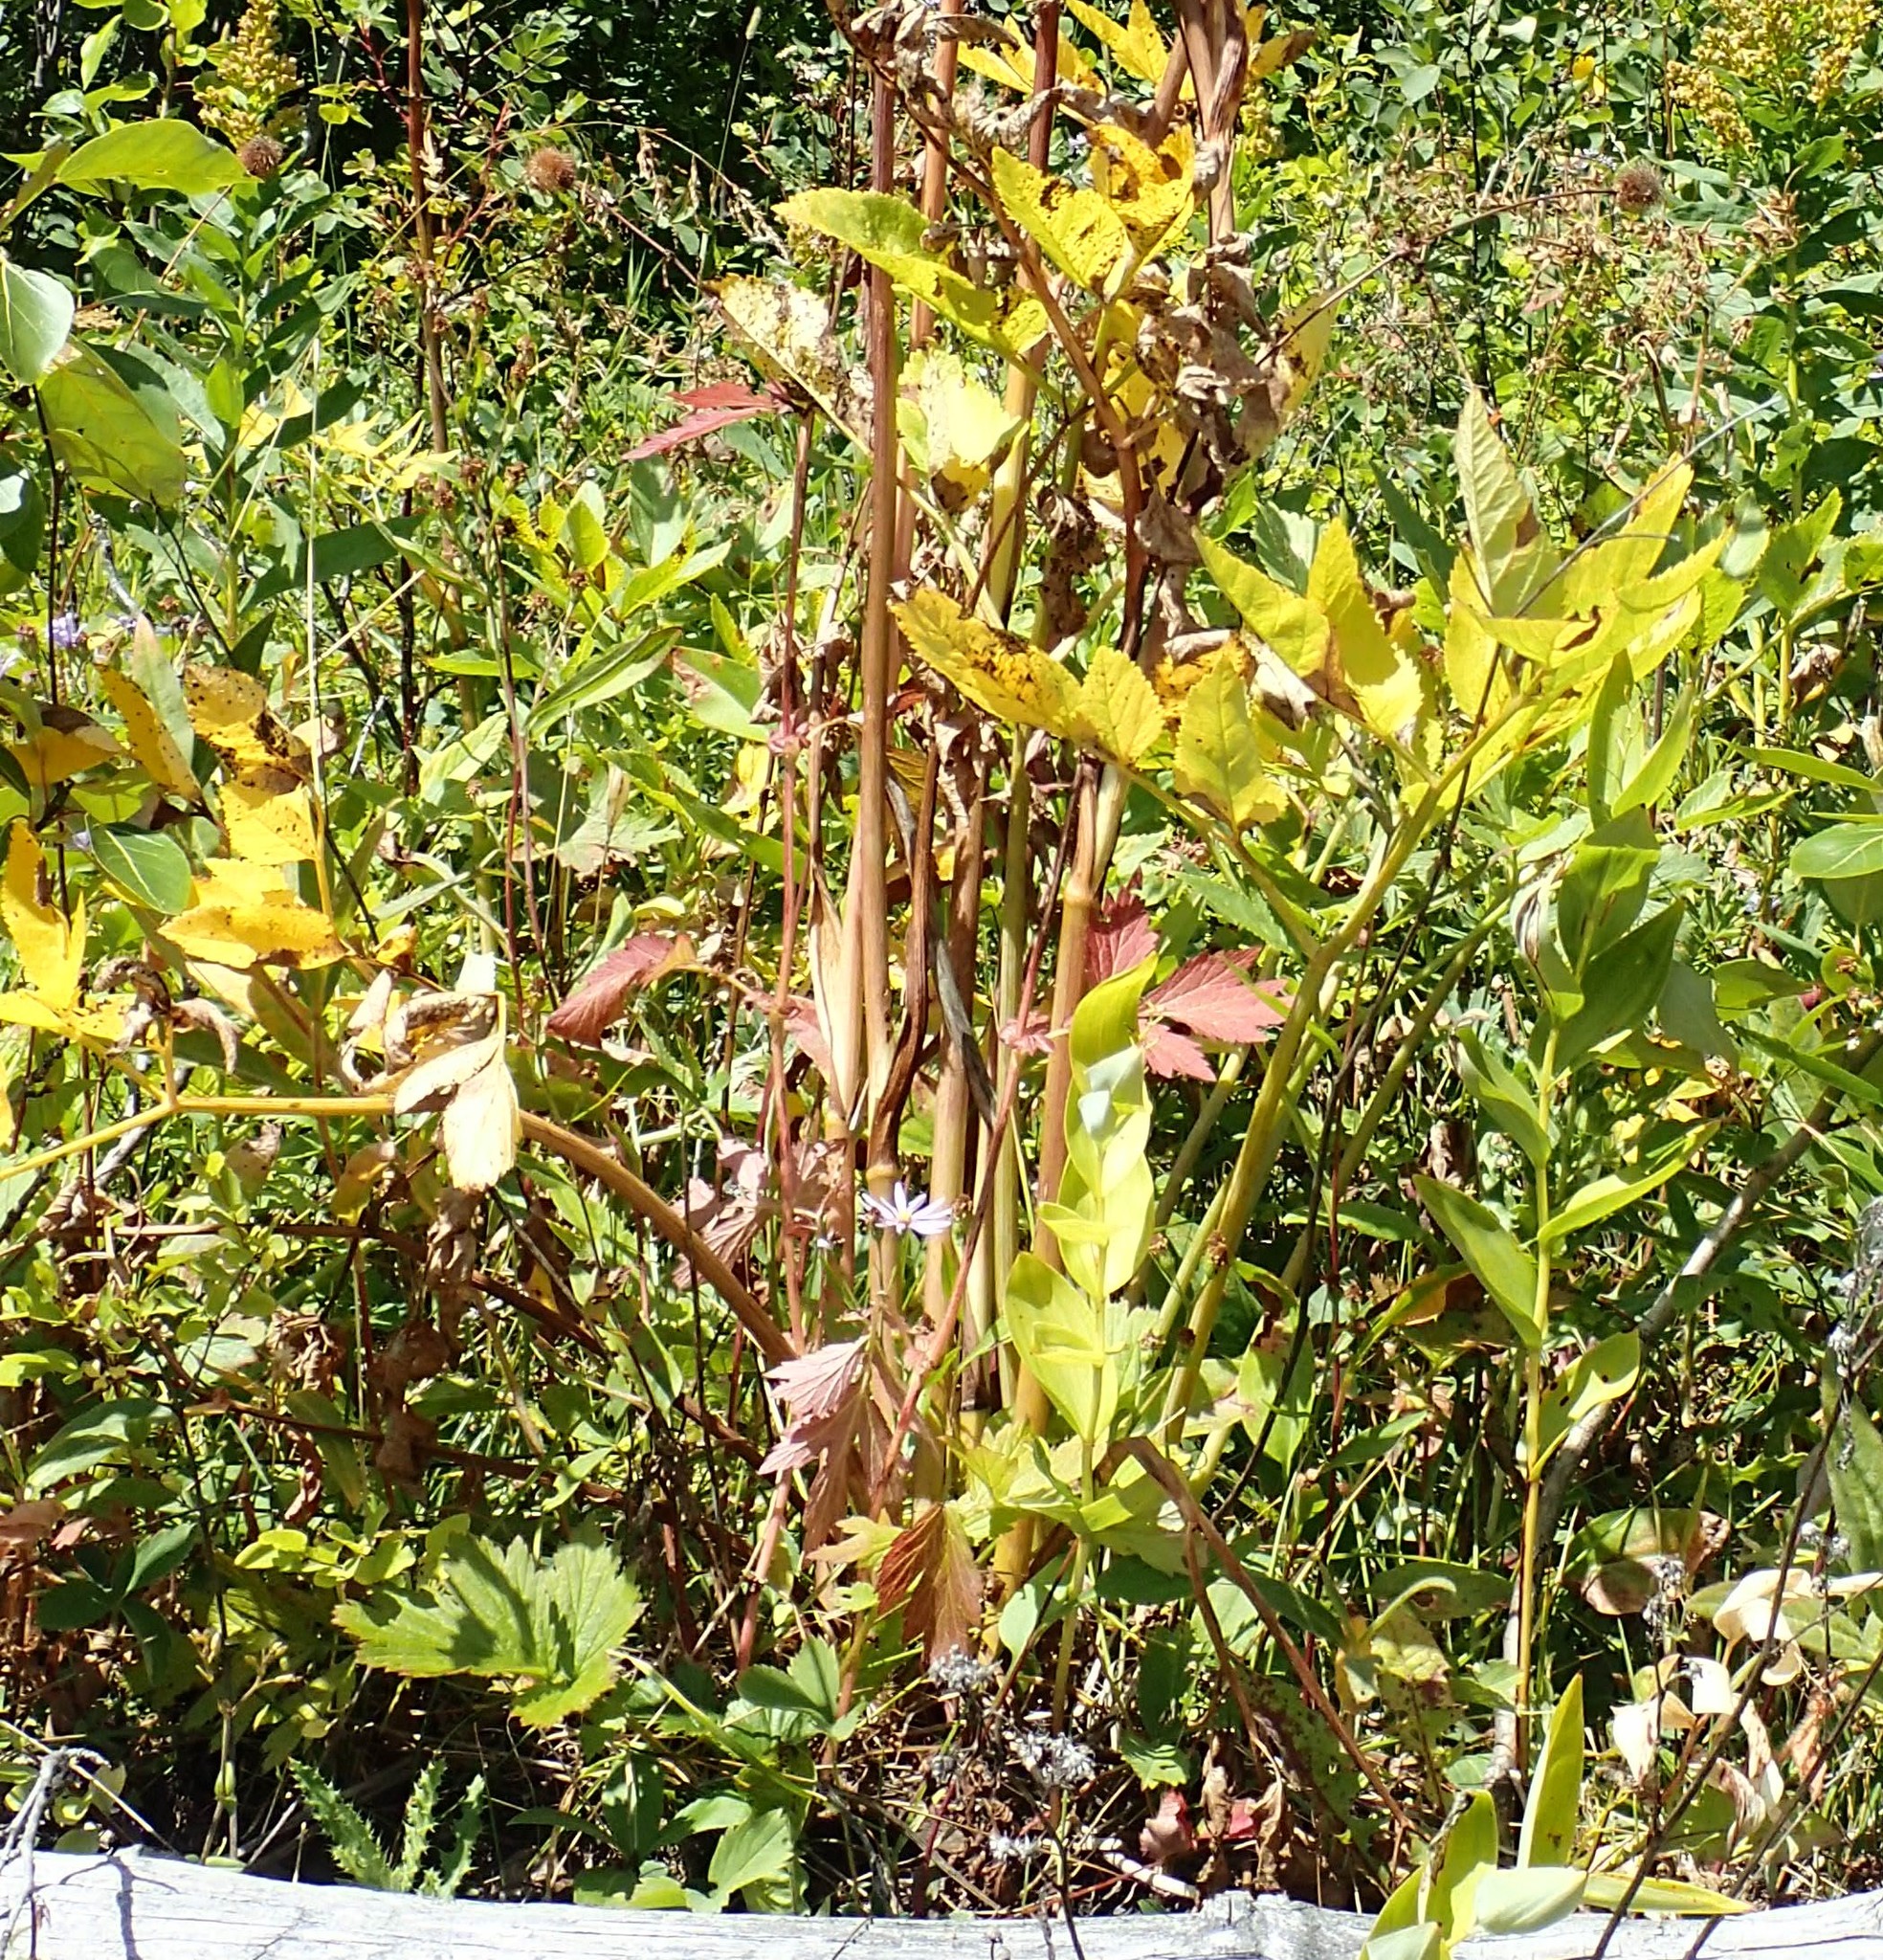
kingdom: Plantae
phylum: Tracheophyta
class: Magnoliopsida
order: Apiales
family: Apiaceae
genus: Angelica
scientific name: Angelica arguta
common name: Lyall's angelica
